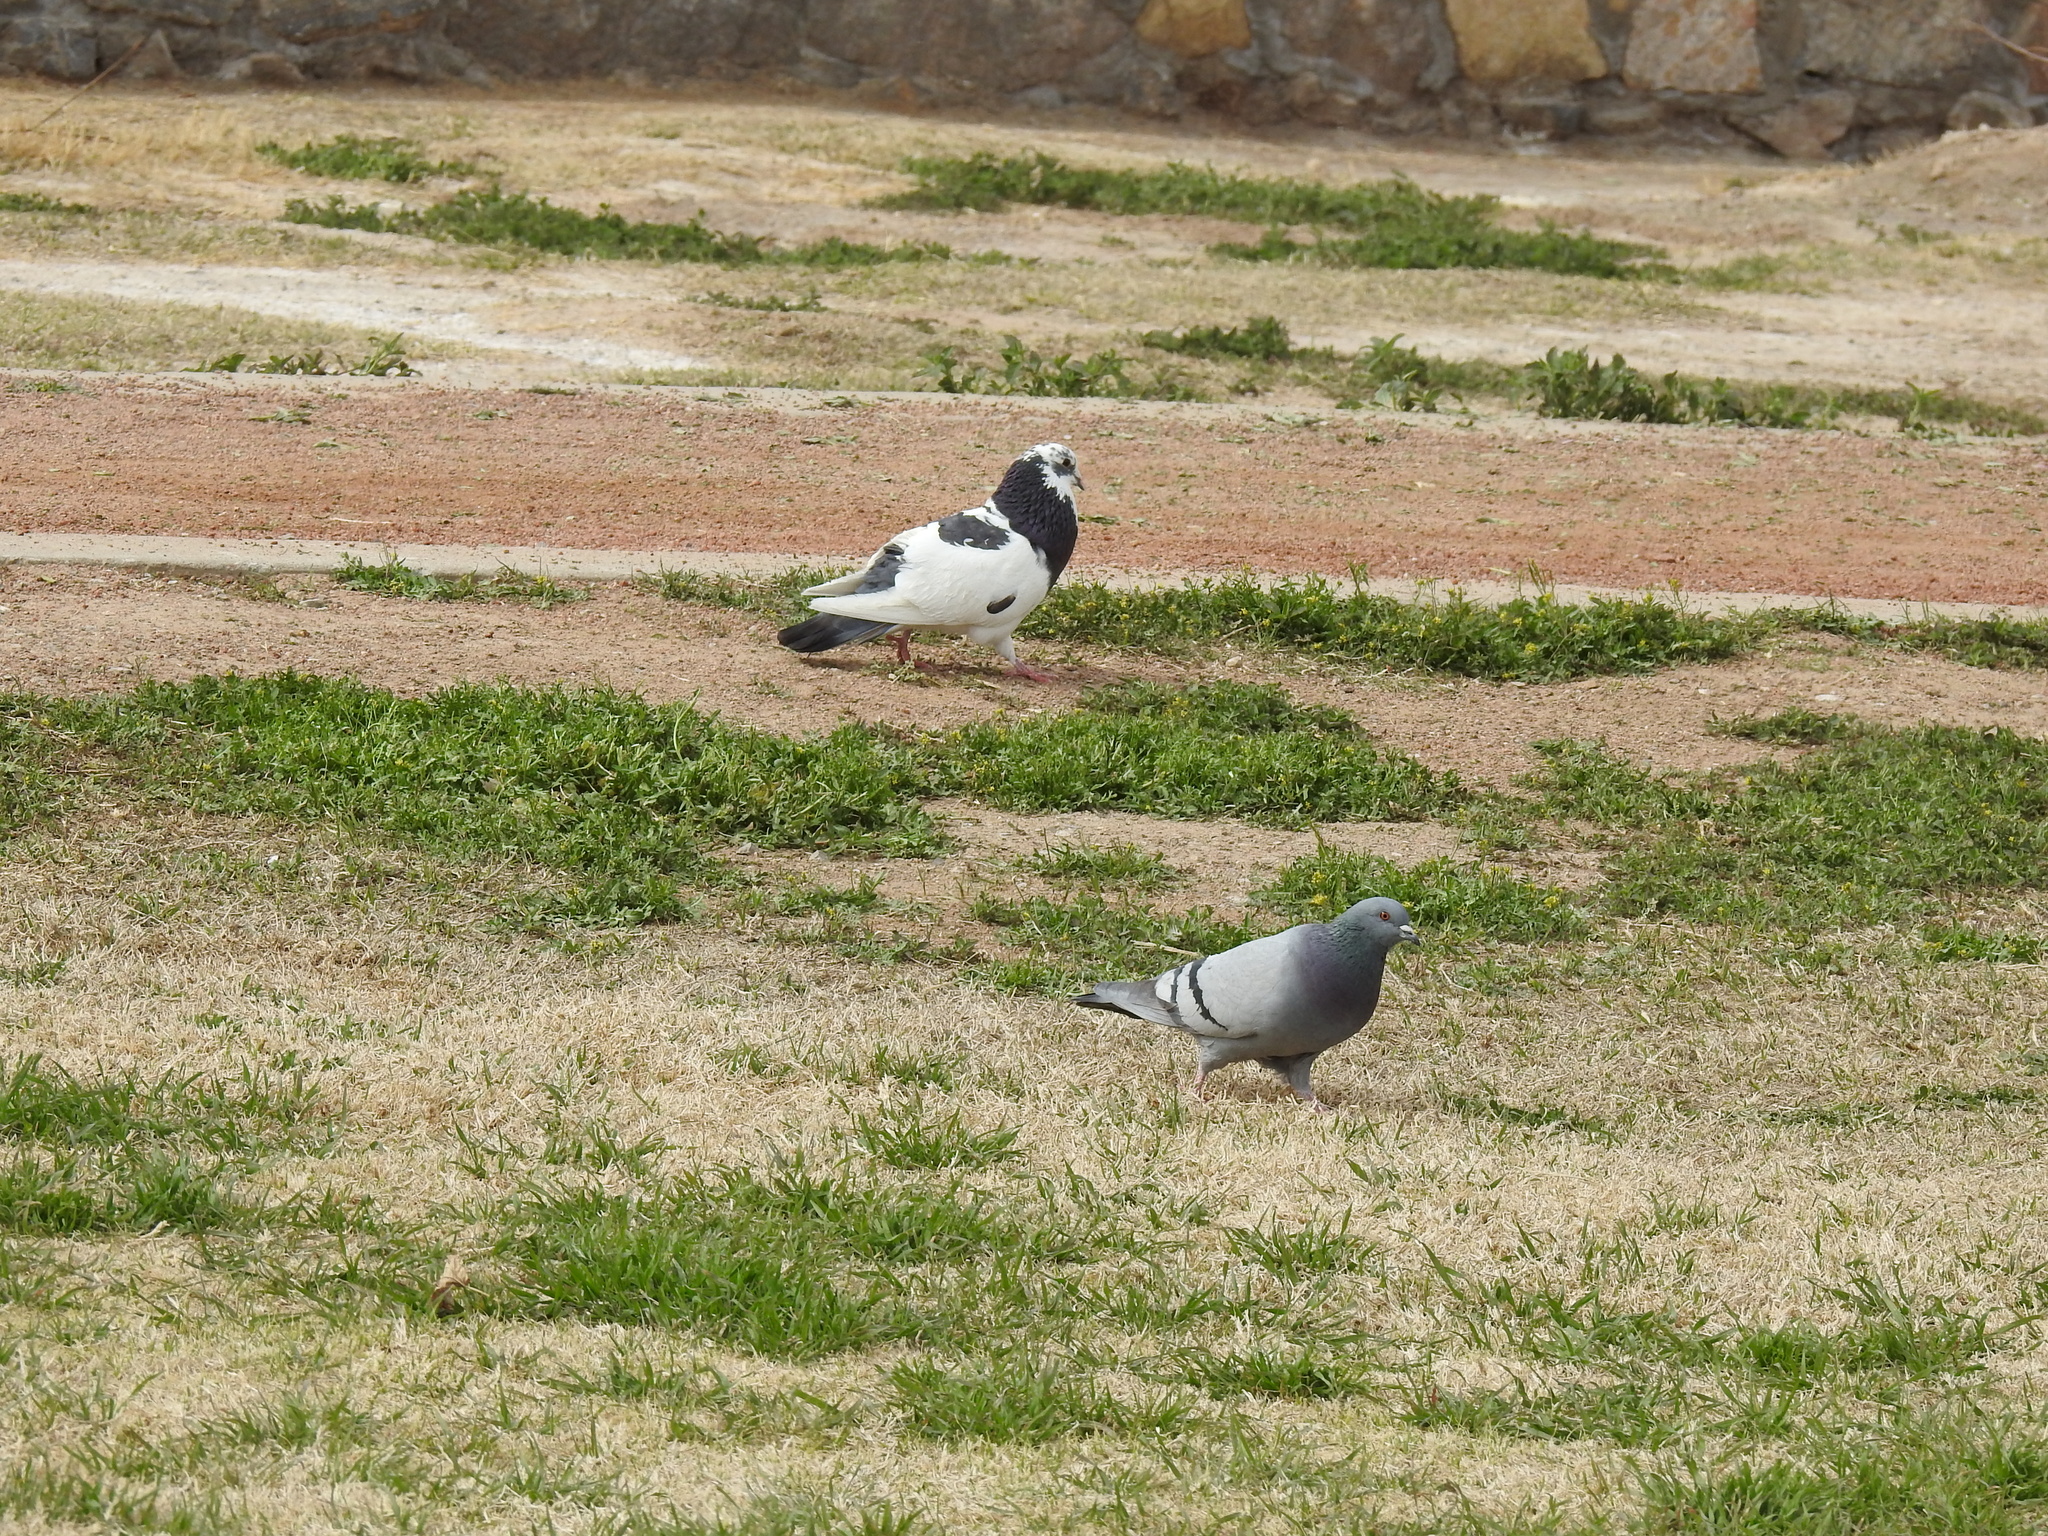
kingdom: Animalia
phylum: Chordata
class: Aves
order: Columbiformes
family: Columbidae
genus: Columba
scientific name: Columba livia
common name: Rock pigeon
